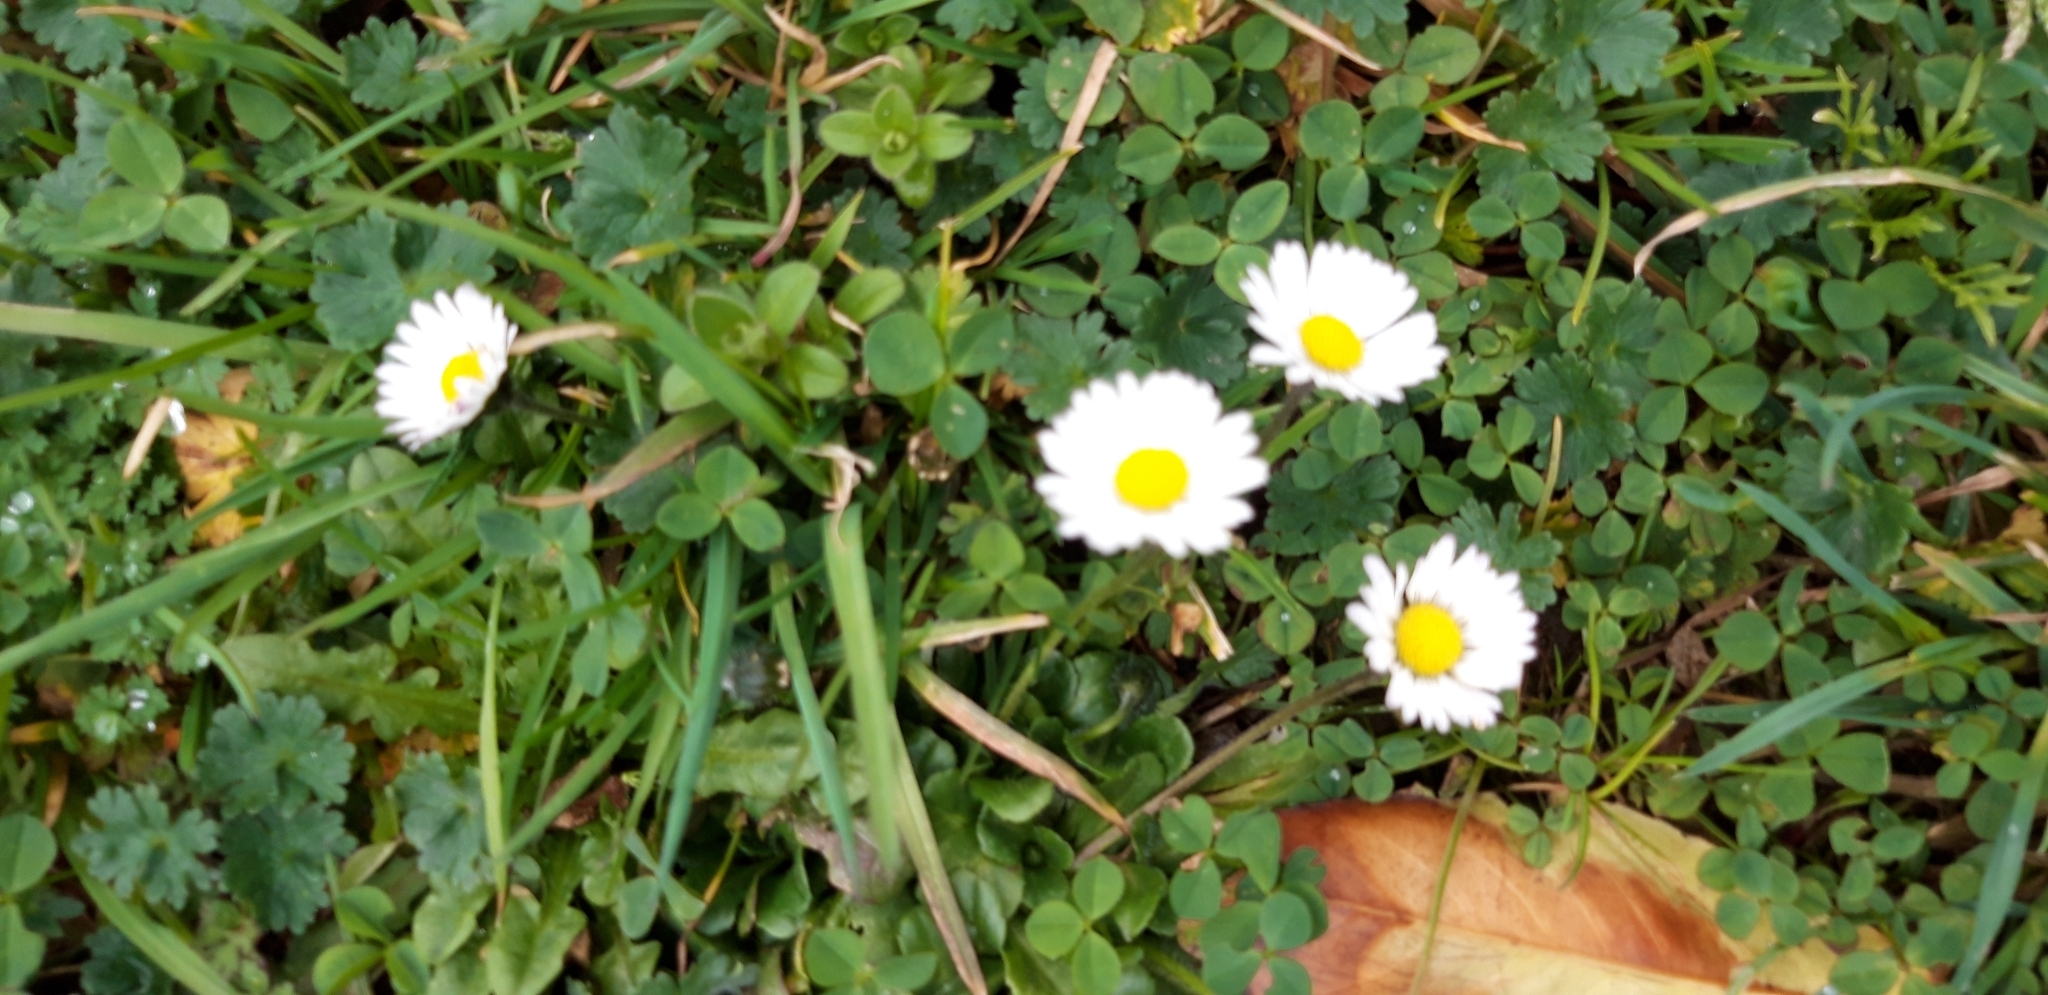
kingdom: Plantae
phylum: Tracheophyta
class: Magnoliopsida
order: Asterales
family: Asteraceae
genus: Bellis
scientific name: Bellis perennis
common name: Lawndaisy
